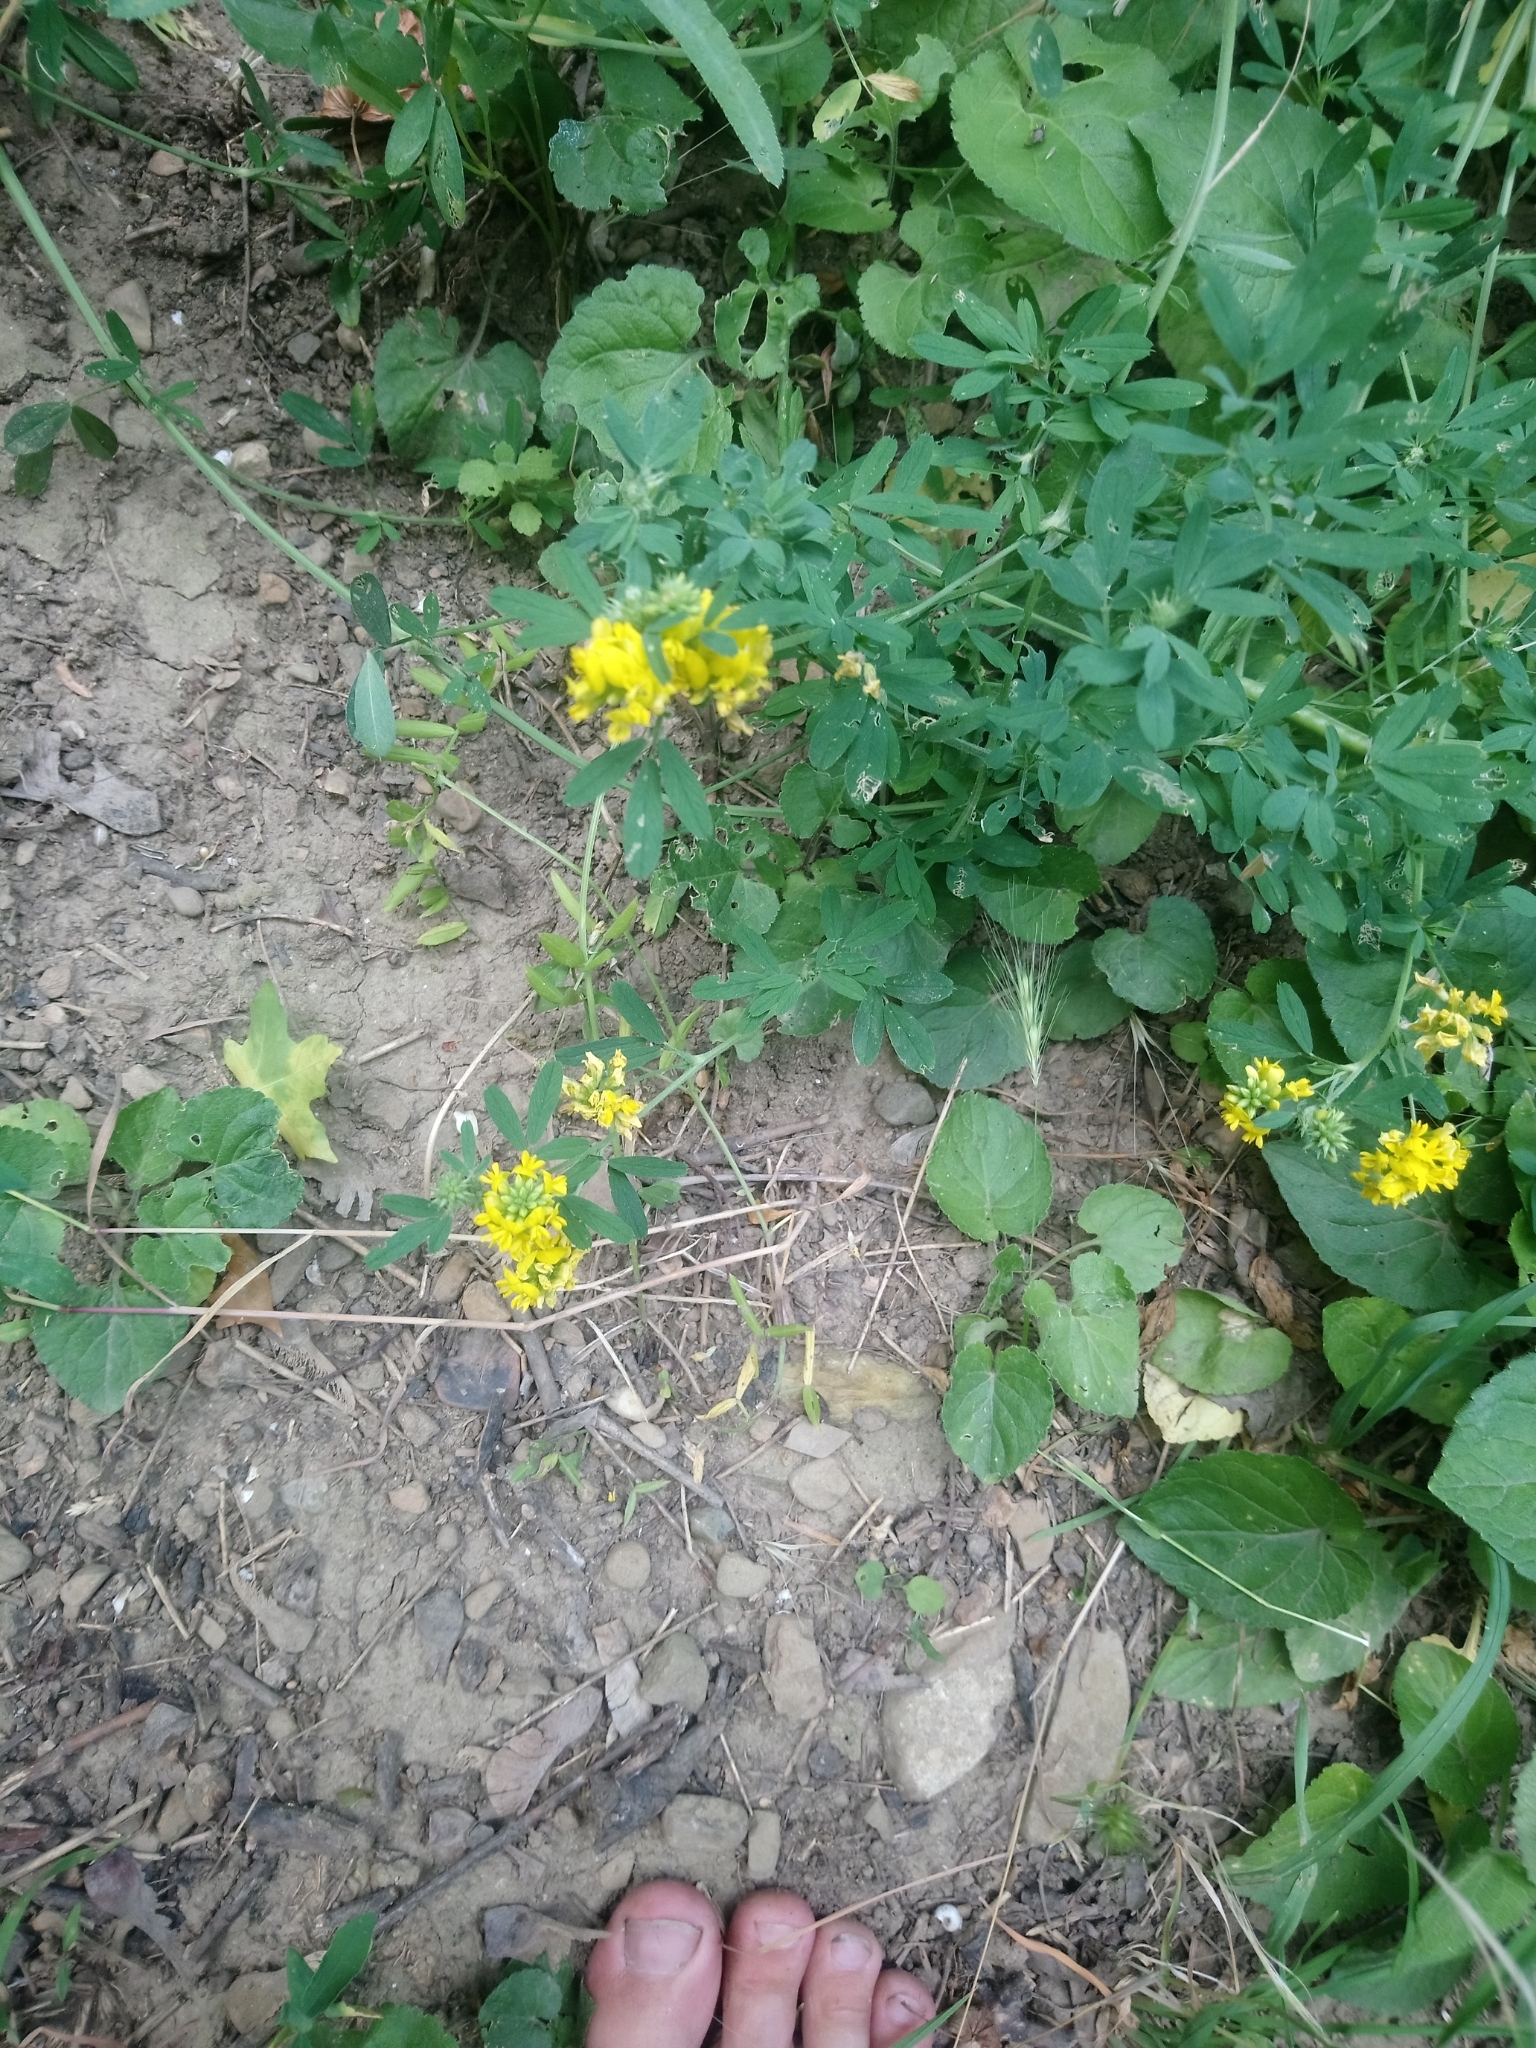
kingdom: Plantae
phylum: Tracheophyta
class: Magnoliopsida
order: Fabales
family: Fabaceae
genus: Medicago
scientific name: Medicago falcata
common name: Sickle medick
